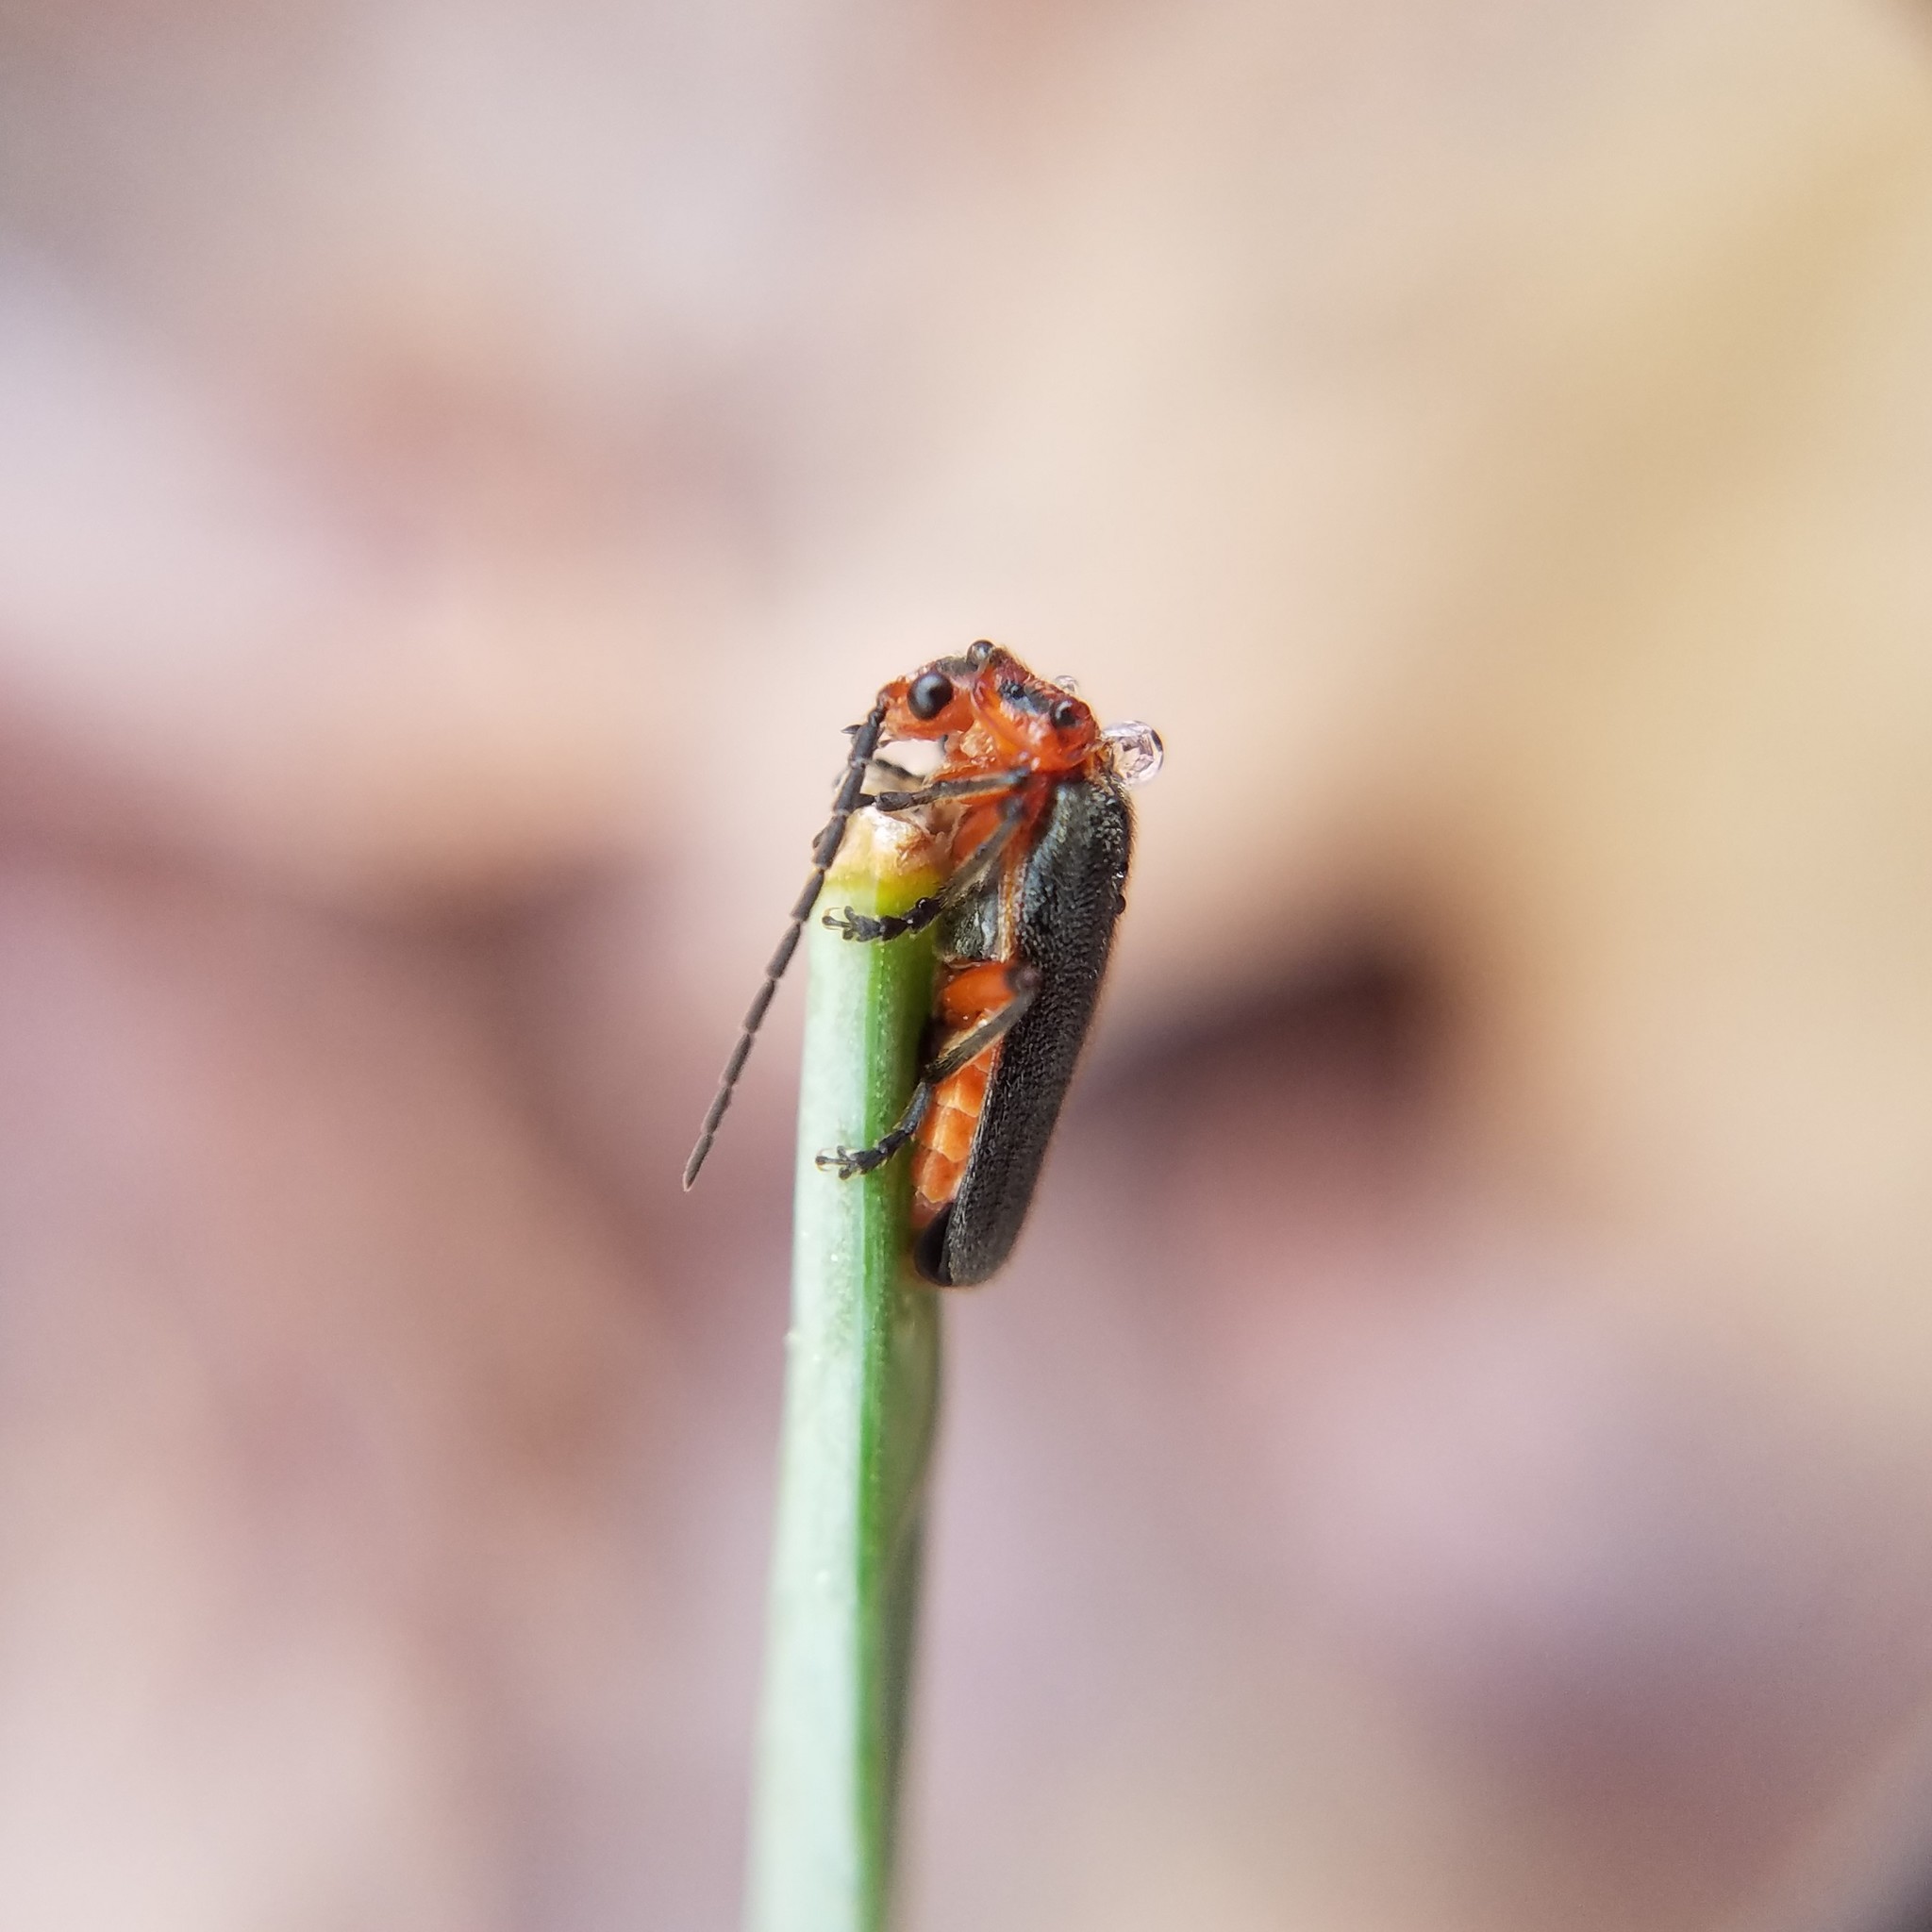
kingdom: Animalia
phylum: Arthropoda
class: Insecta
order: Coleoptera
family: Cantharidae
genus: Atalantycha
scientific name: Atalantycha bilineata
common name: Two-lined leatherwing
